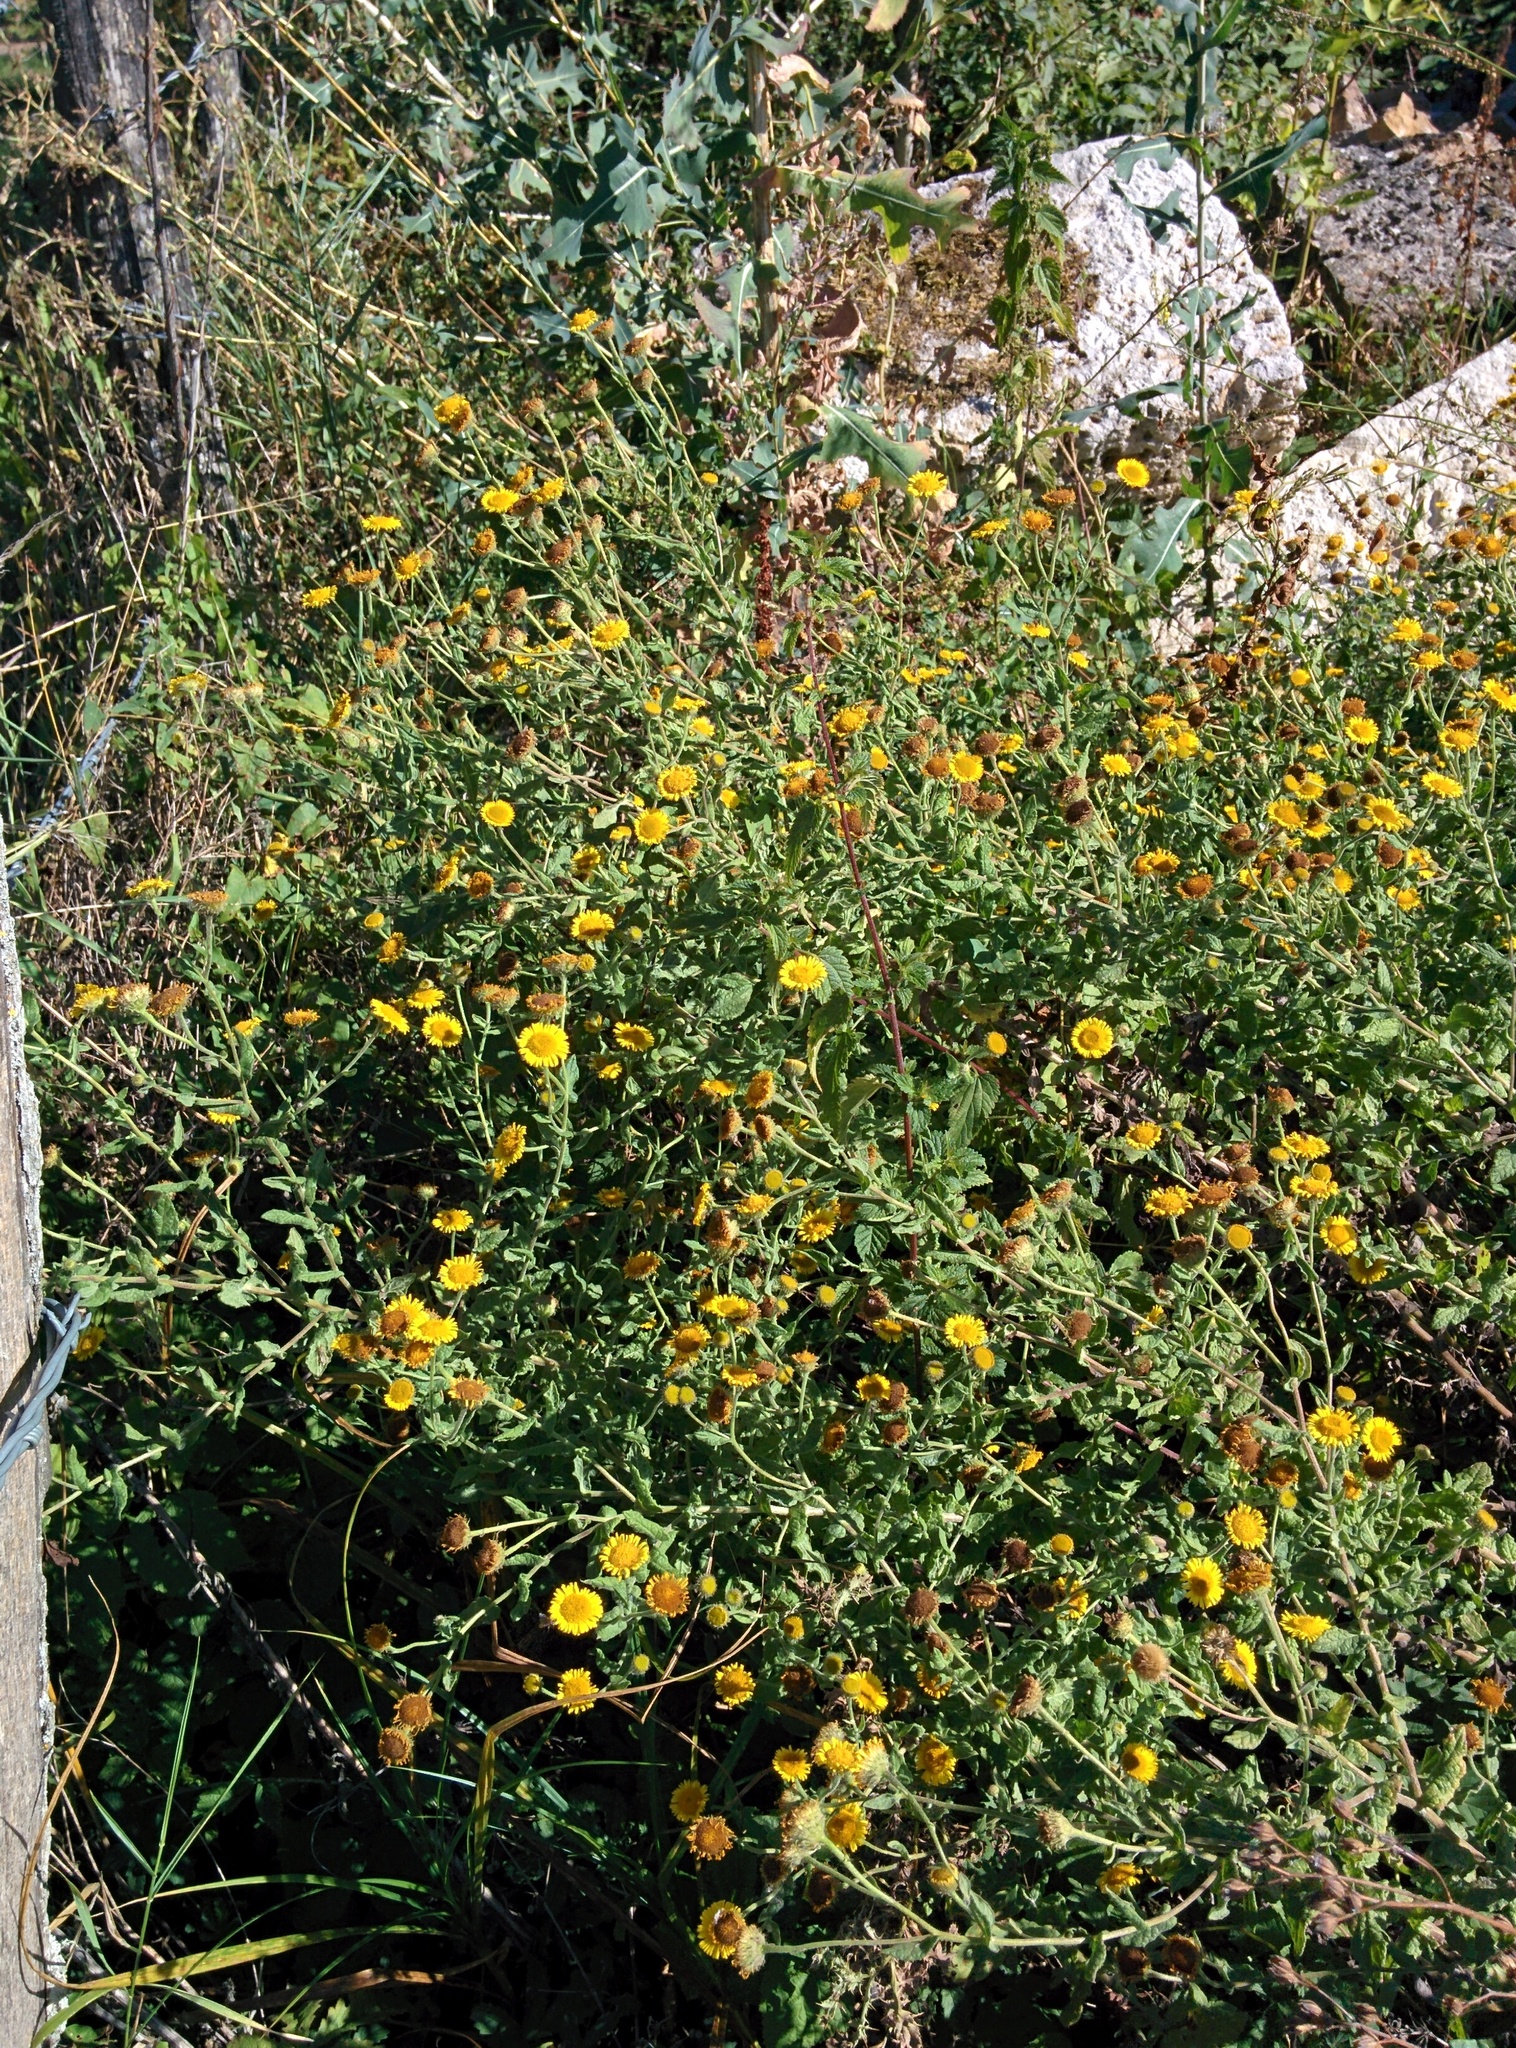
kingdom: Plantae
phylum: Tracheophyta
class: Magnoliopsida
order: Asterales
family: Asteraceae
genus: Pulicaria
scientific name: Pulicaria dysenterica
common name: Common fleabane
